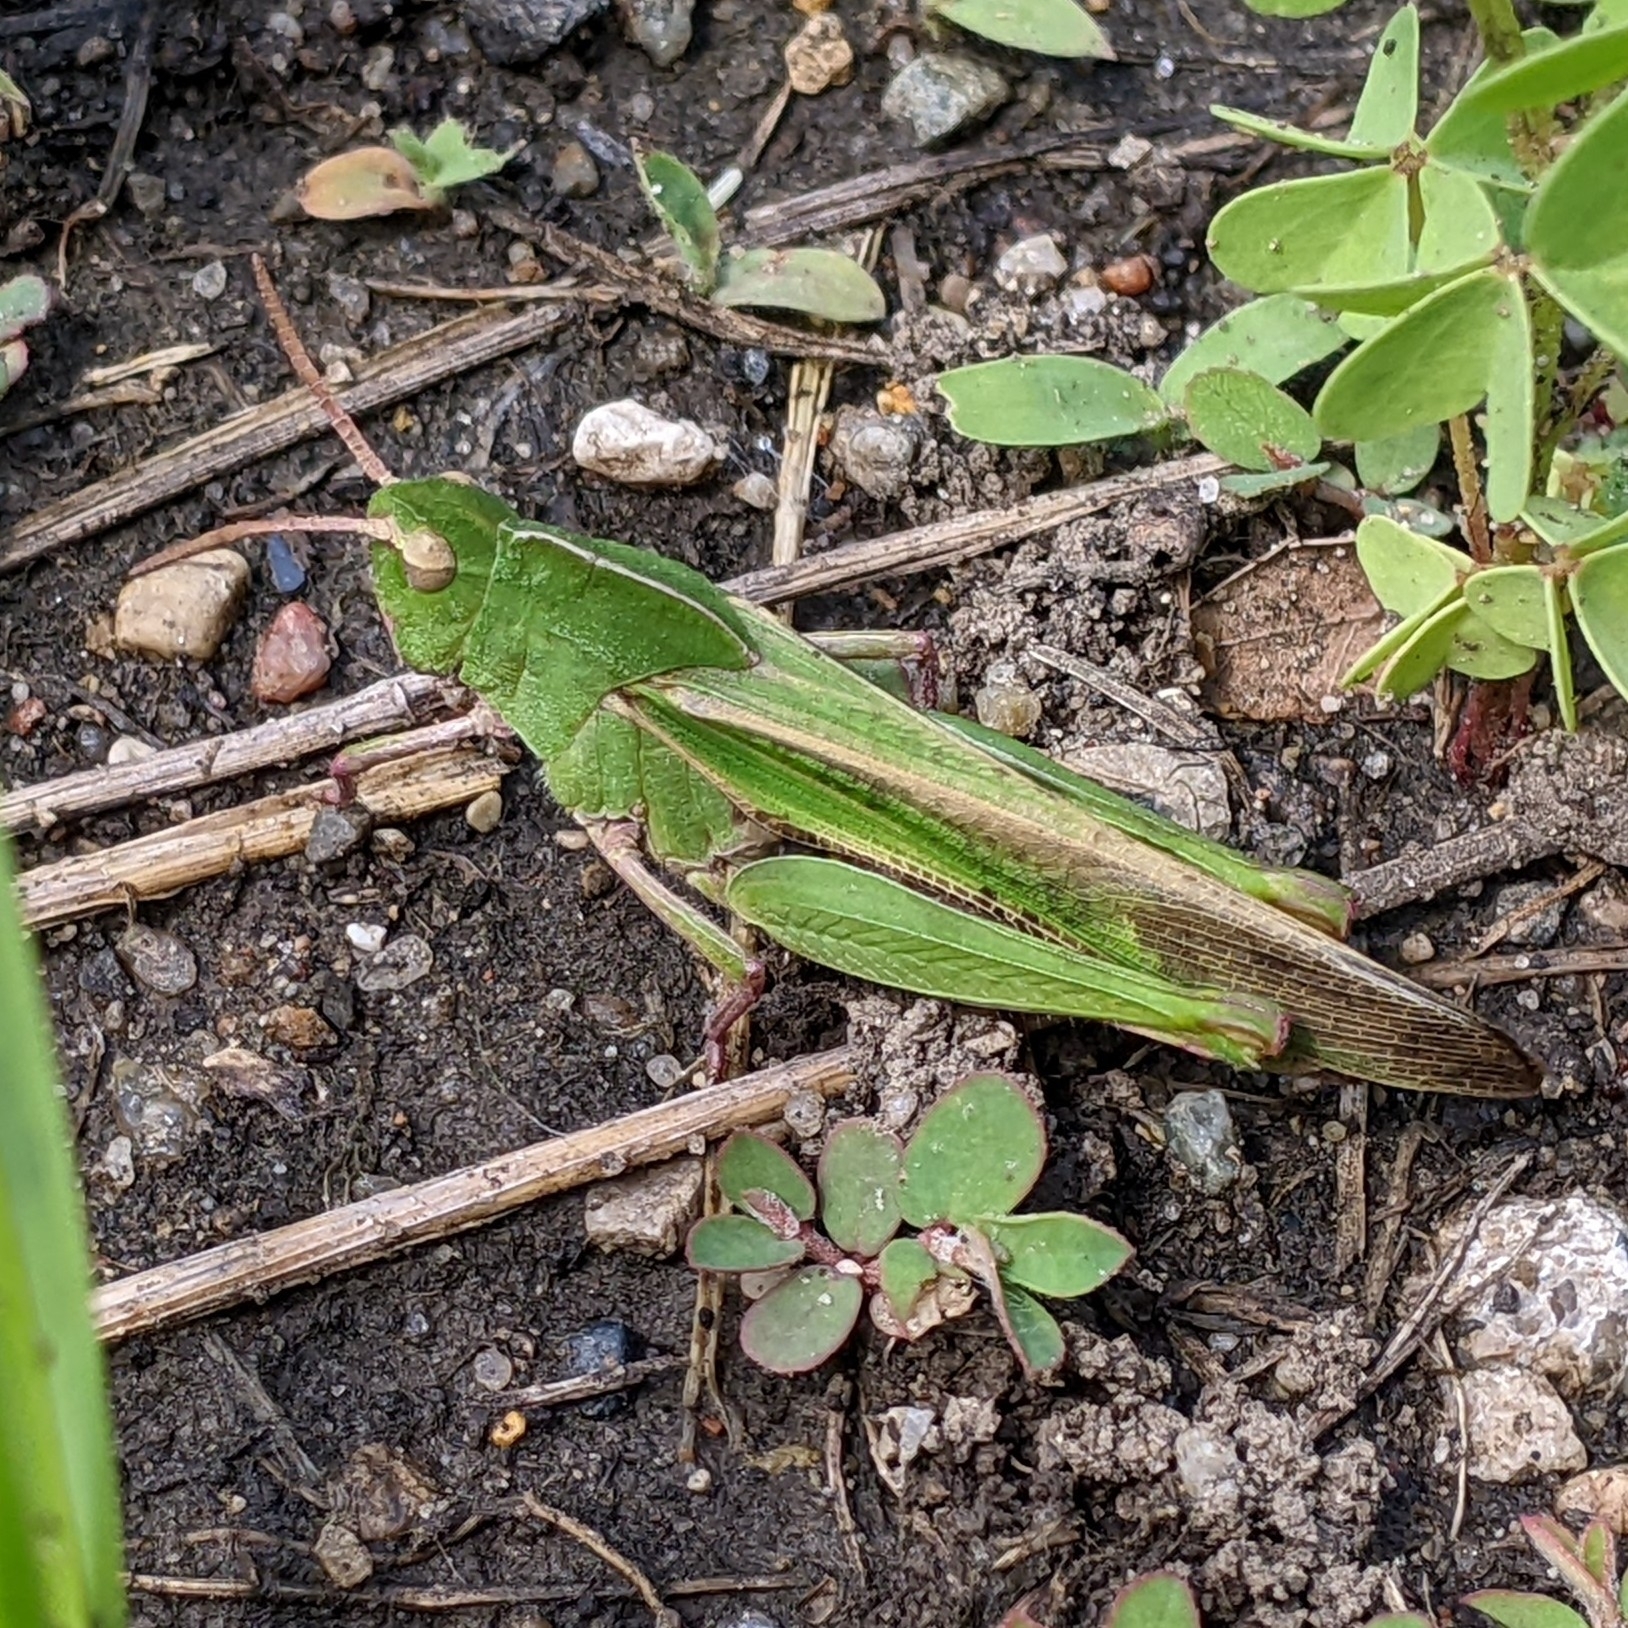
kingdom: Animalia
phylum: Arthropoda
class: Insecta
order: Orthoptera
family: Acrididae
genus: Chortophaga
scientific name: Chortophaga viridifasciata
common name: Green-striped grasshopper
